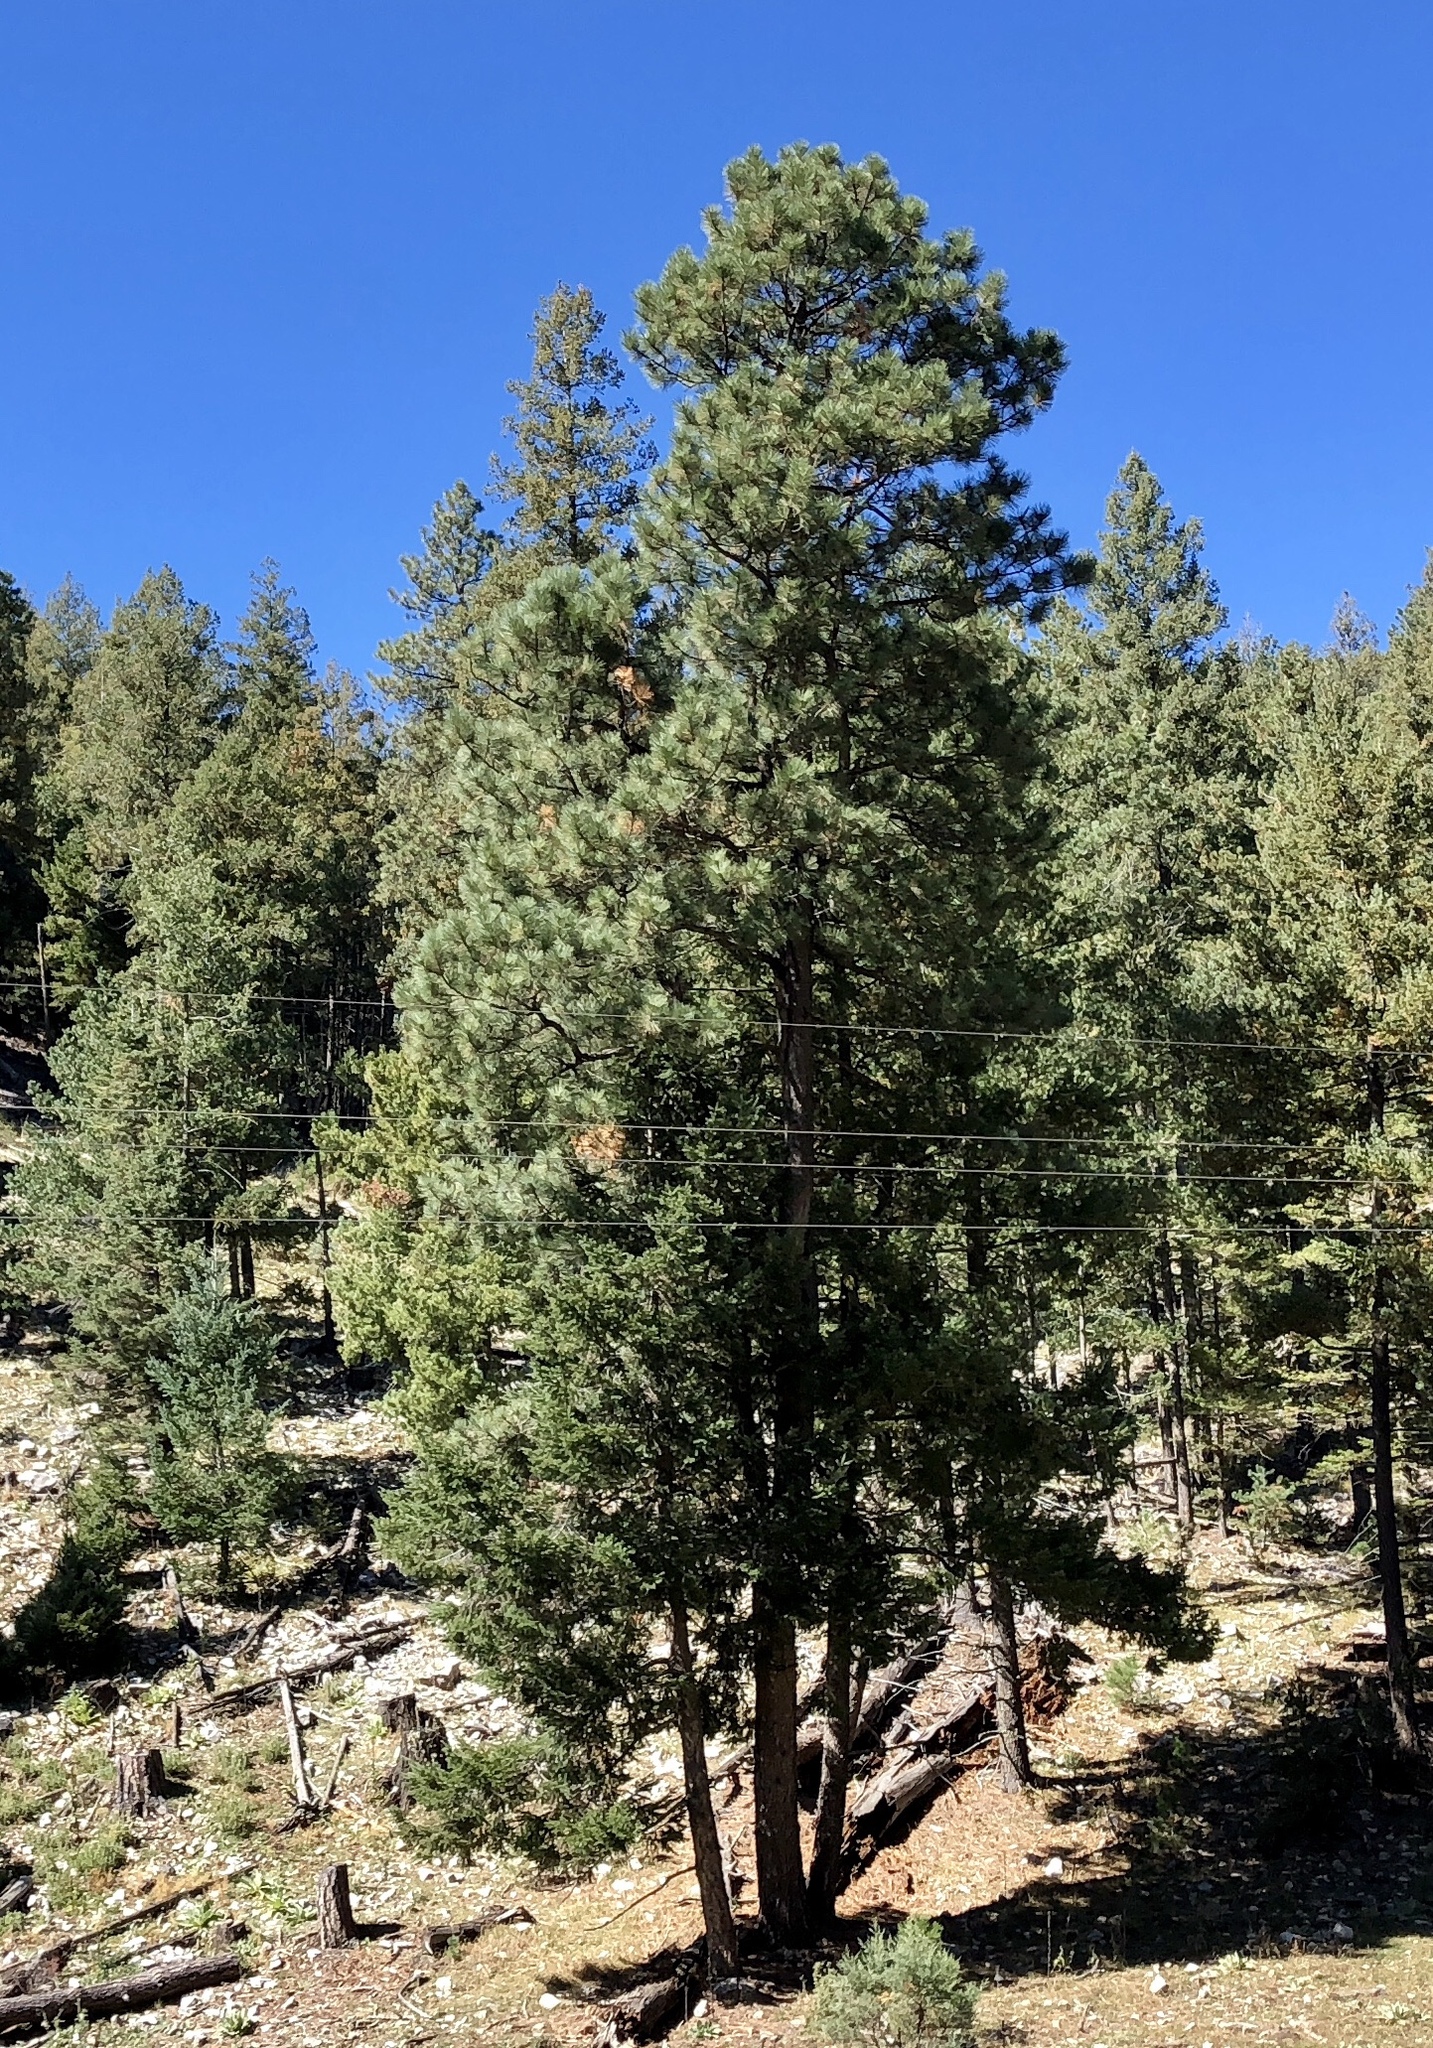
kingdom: Plantae
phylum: Tracheophyta
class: Pinopsida
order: Pinales
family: Pinaceae
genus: Pinus
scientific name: Pinus ponderosa
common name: Western yellow-pine
